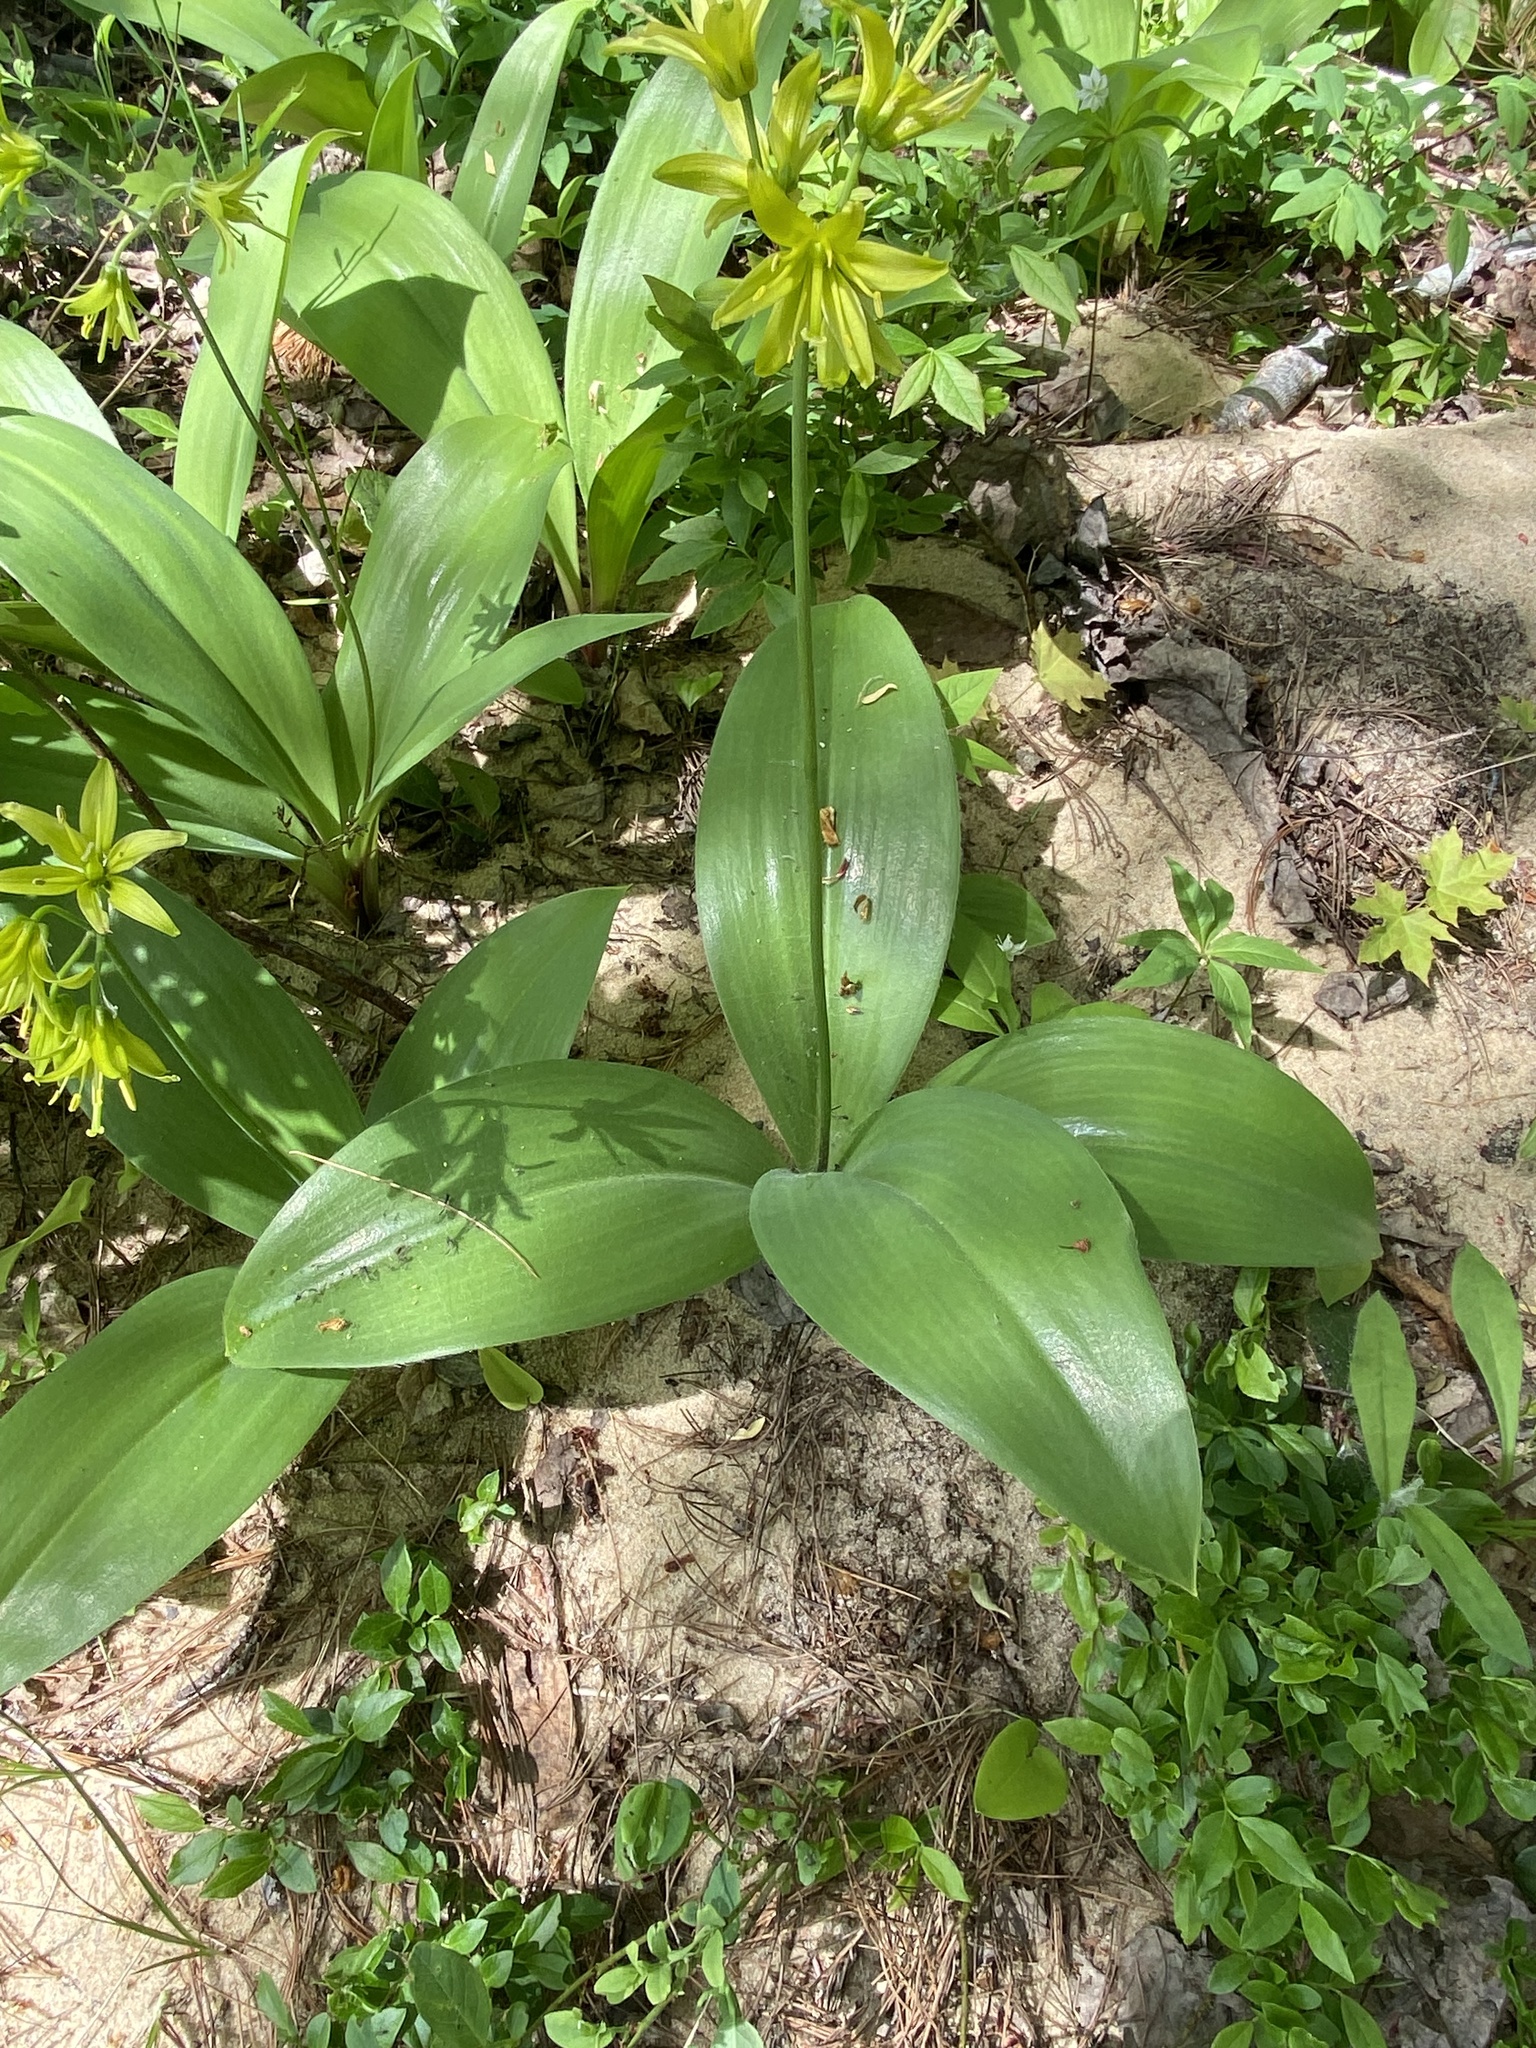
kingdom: Plantae
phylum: Tracheophyta
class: Liliopsida
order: Liliales
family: Liliaceae
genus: Clintonia
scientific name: Clintonia borealis
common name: Yellow clintonia
